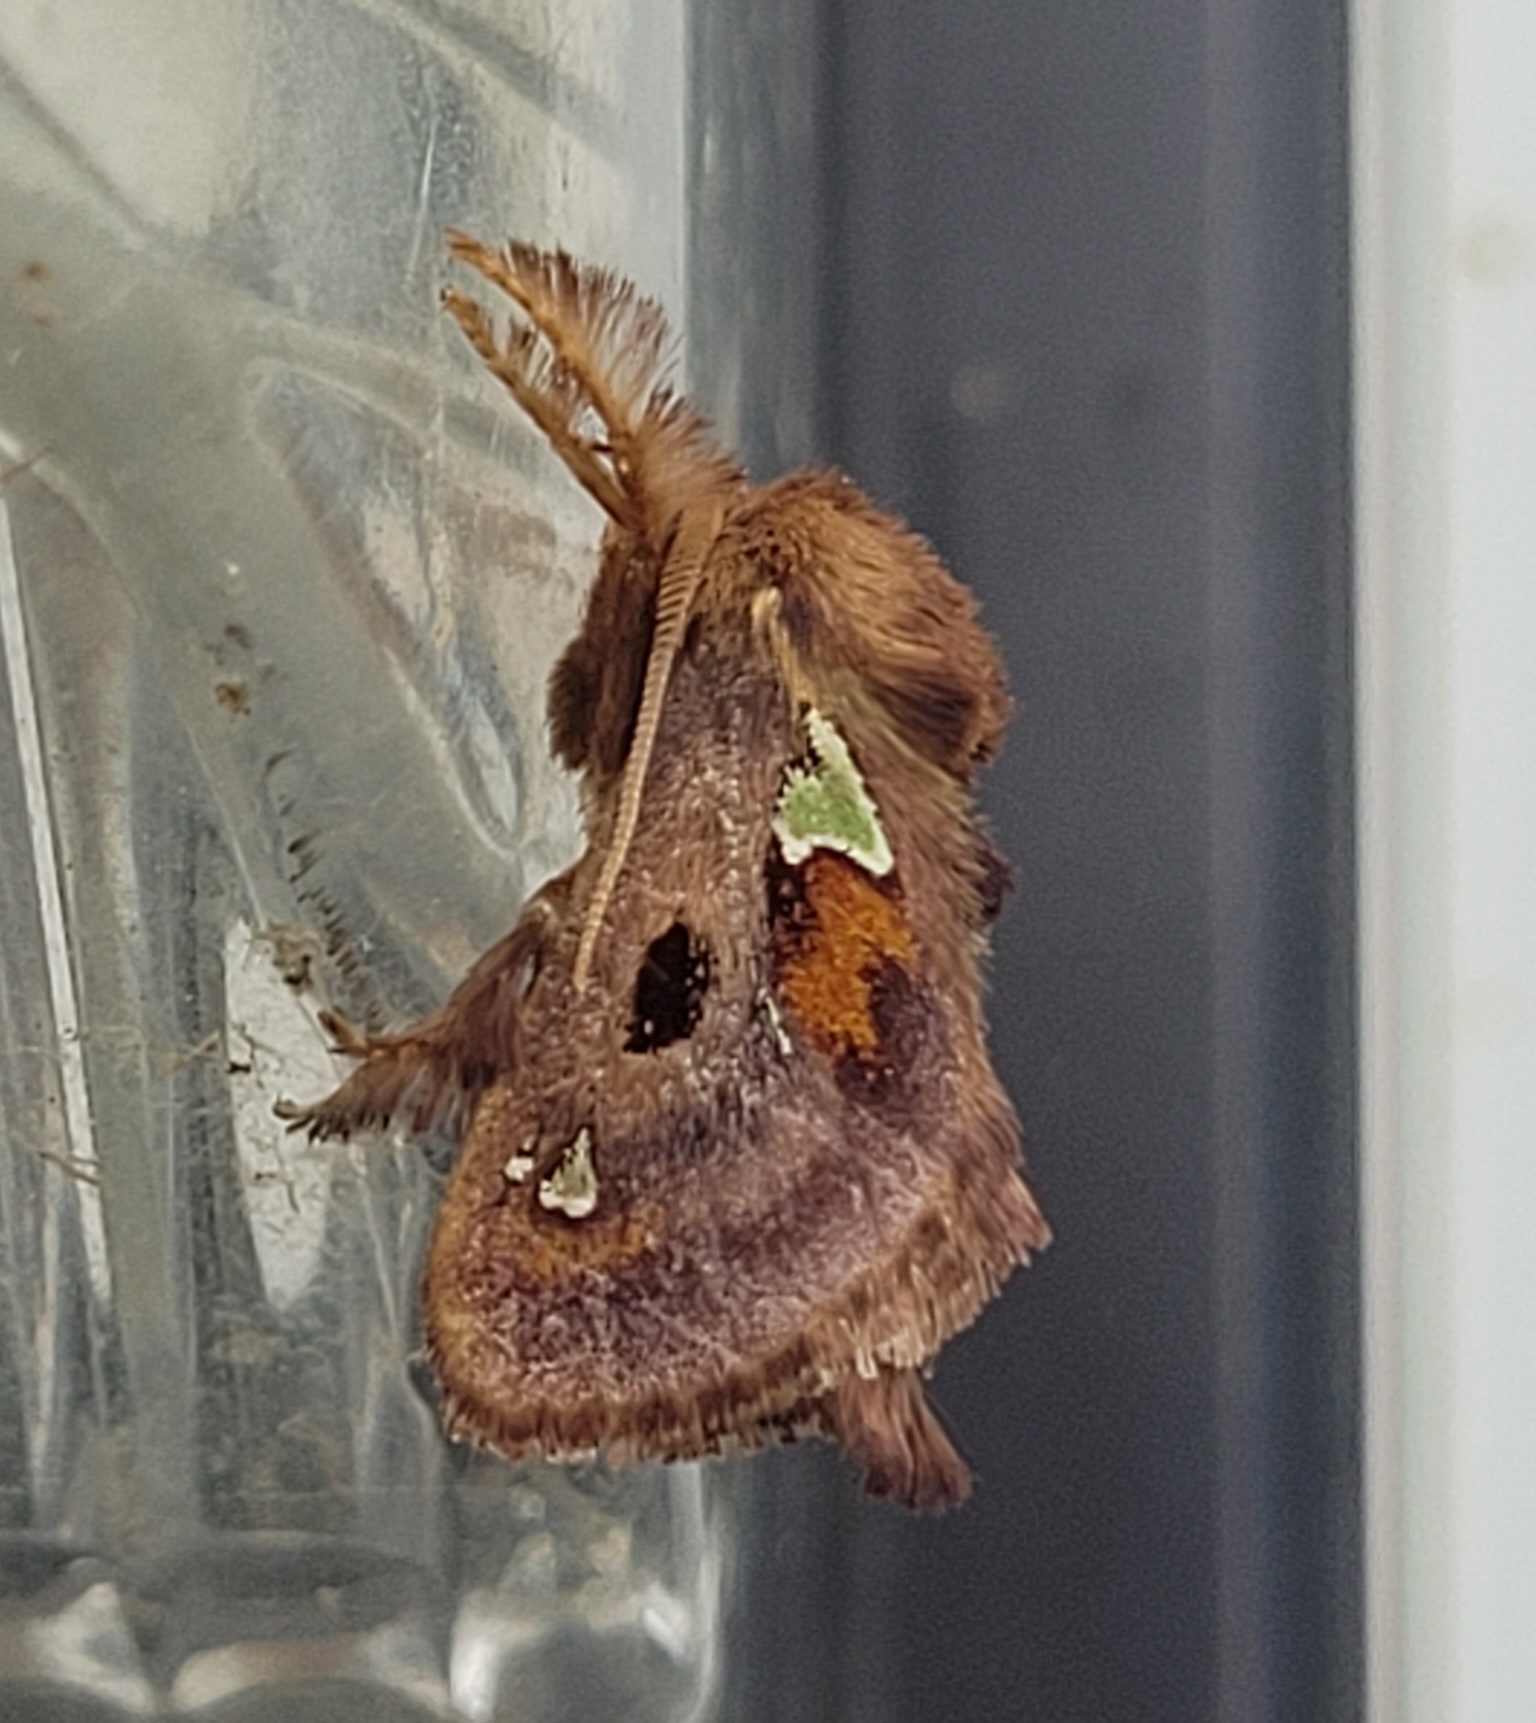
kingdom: Animalia
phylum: Arthropoda
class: Insecta
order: Lepidoptera
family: Limacodidae
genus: Euclea
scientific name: Euclea delphinii
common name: Spiny oak-slug moth
